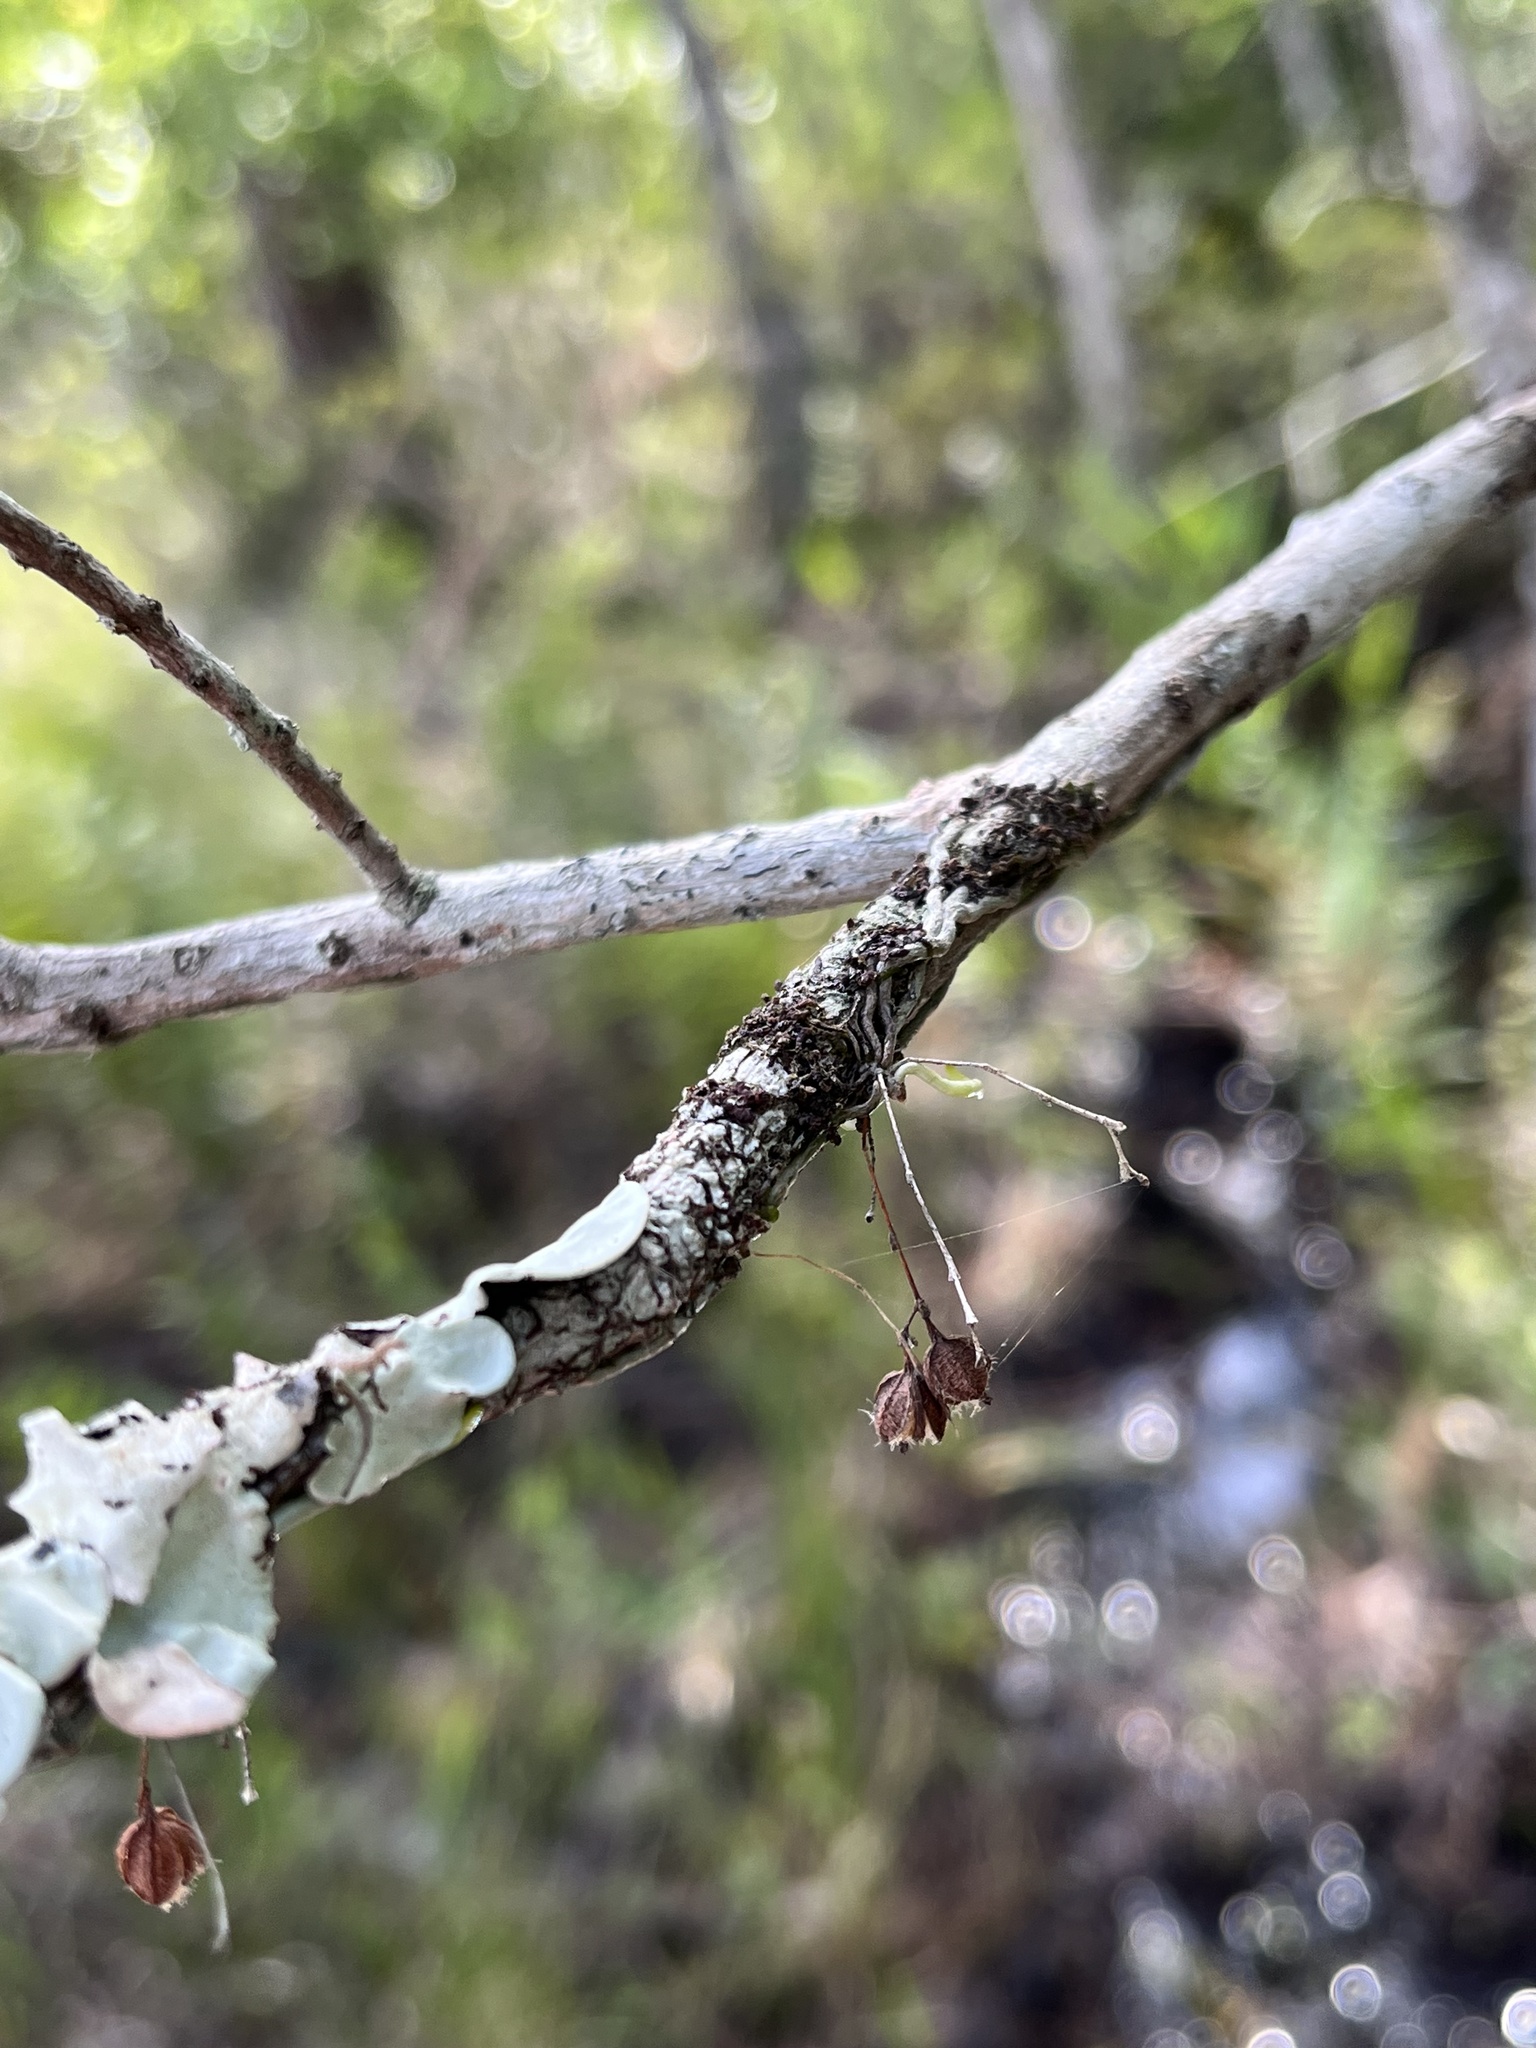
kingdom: Plantae
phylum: Tracheophyta
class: Liliopsida
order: Asparagales
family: Orchidaceae
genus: Dendrophylax
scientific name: Dendrophylax porrectus
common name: Needleroot airplant orchid
